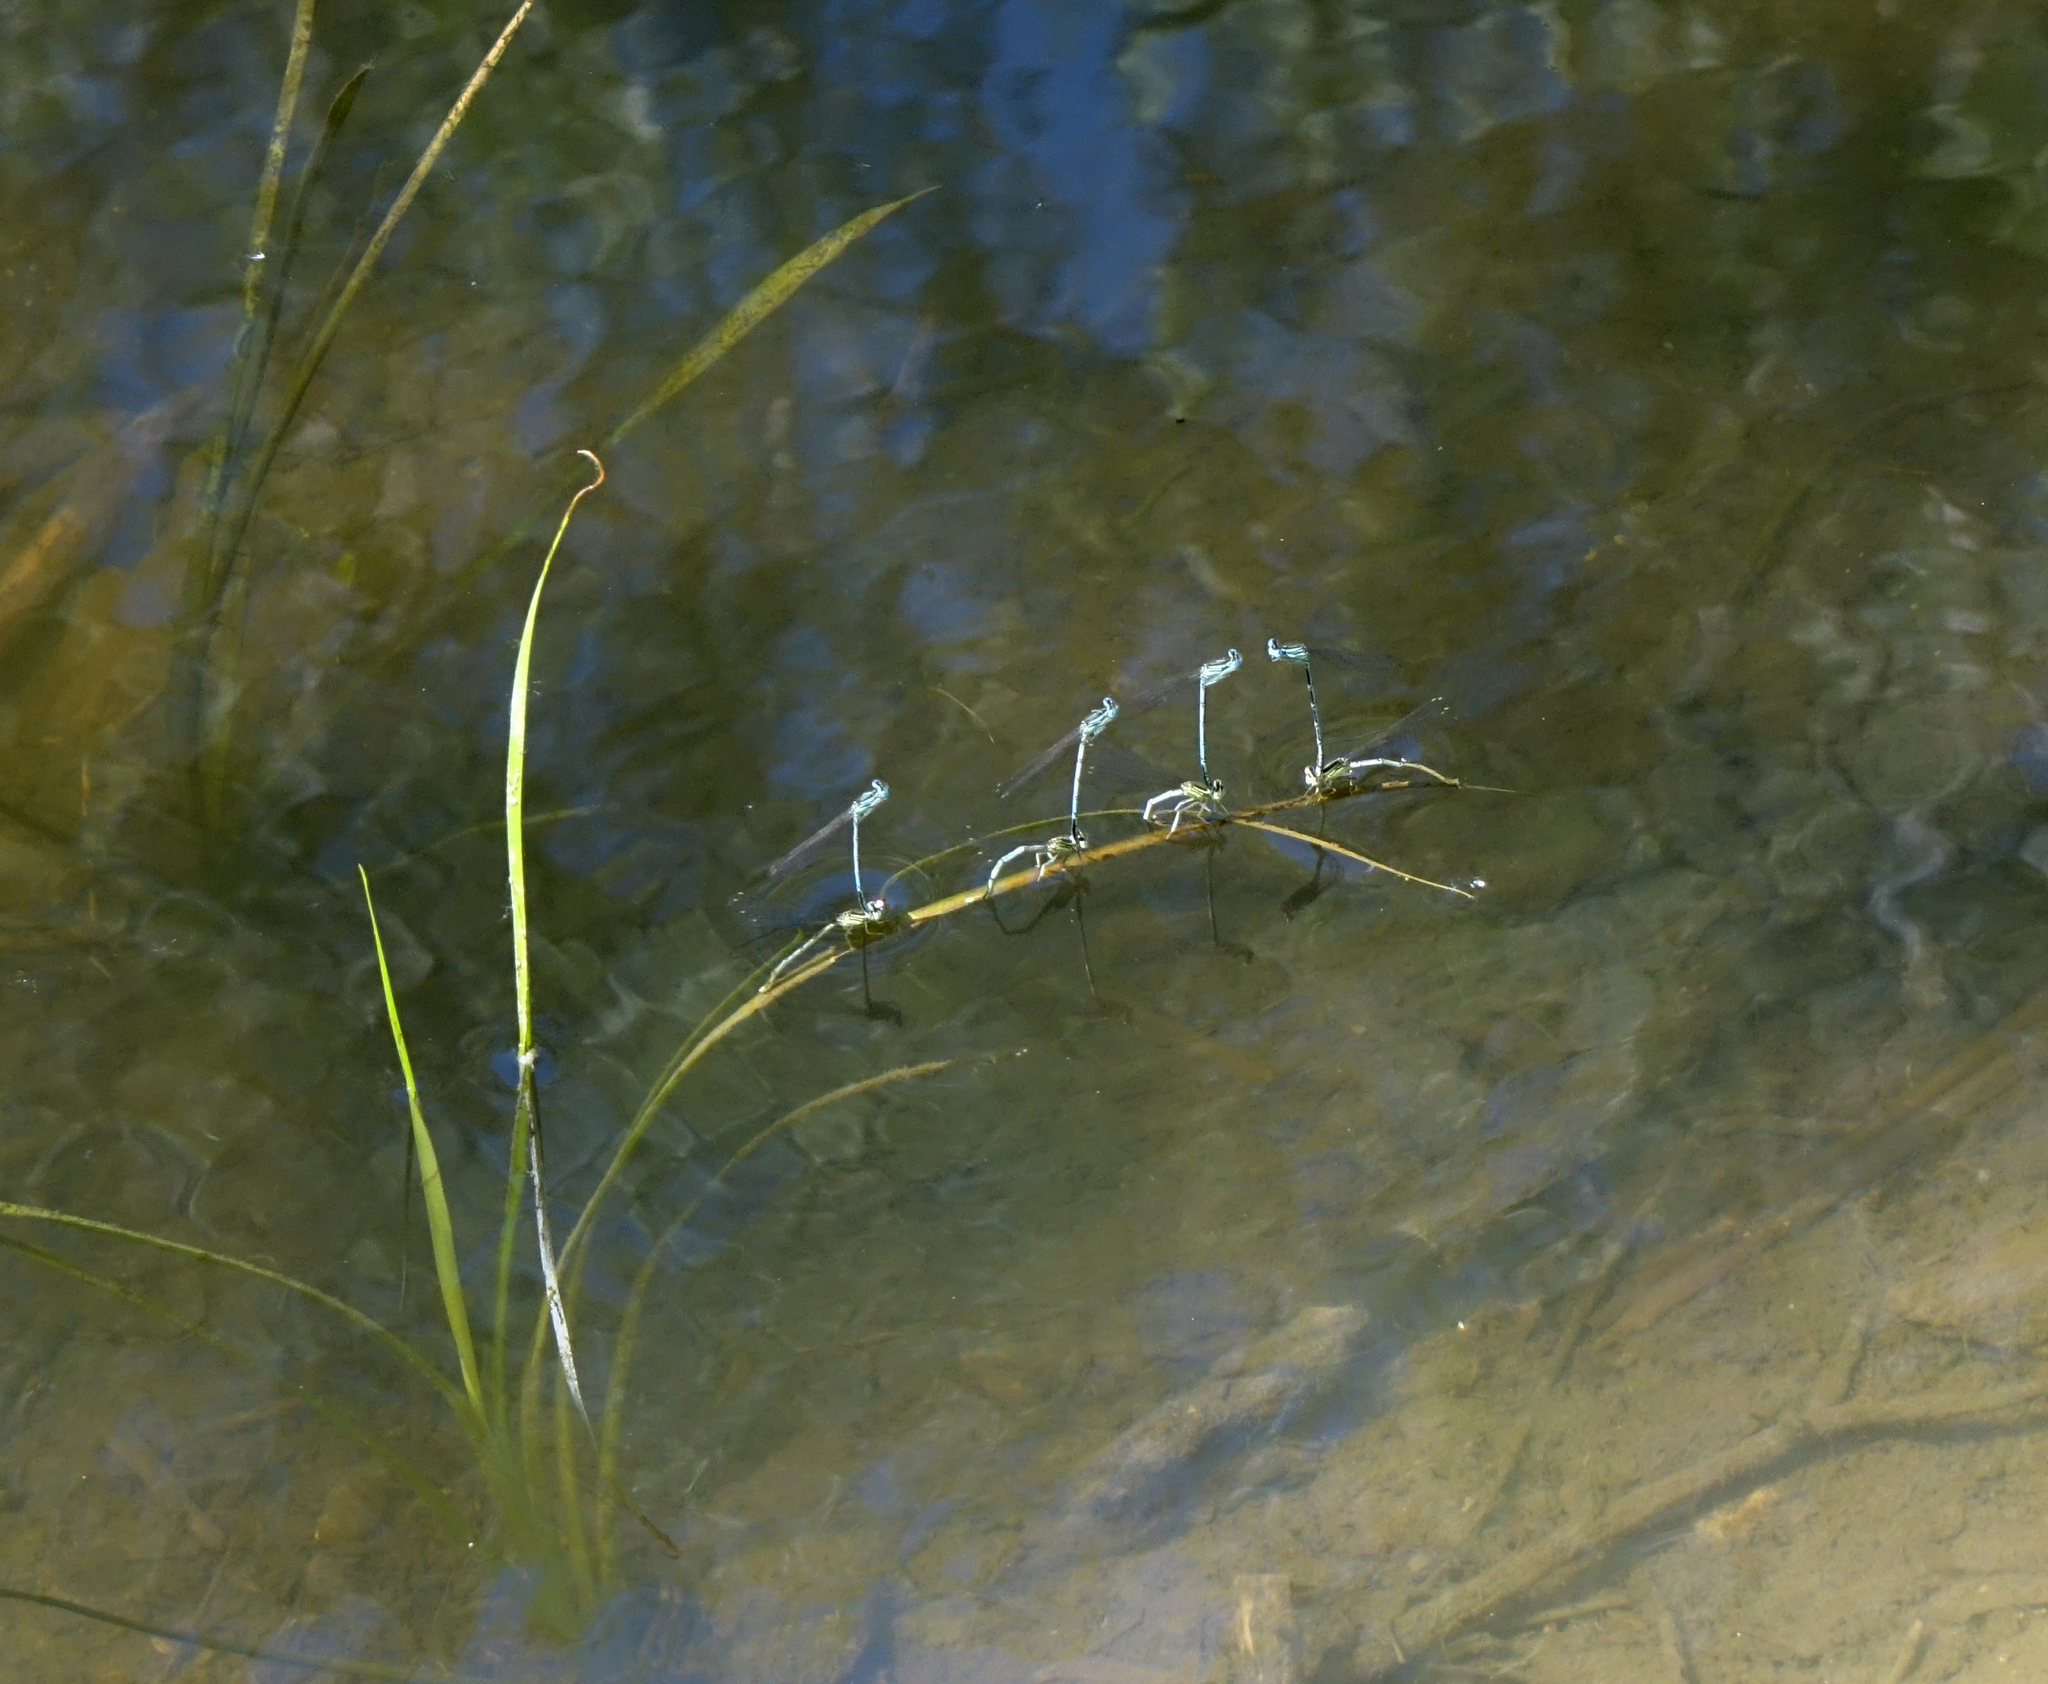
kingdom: Animalia
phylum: Arthropoda
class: Insecta
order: Odonata
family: Platycnemididae
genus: Platycnemis
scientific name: Platycnemis pennipes
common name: White-legged damselfly
